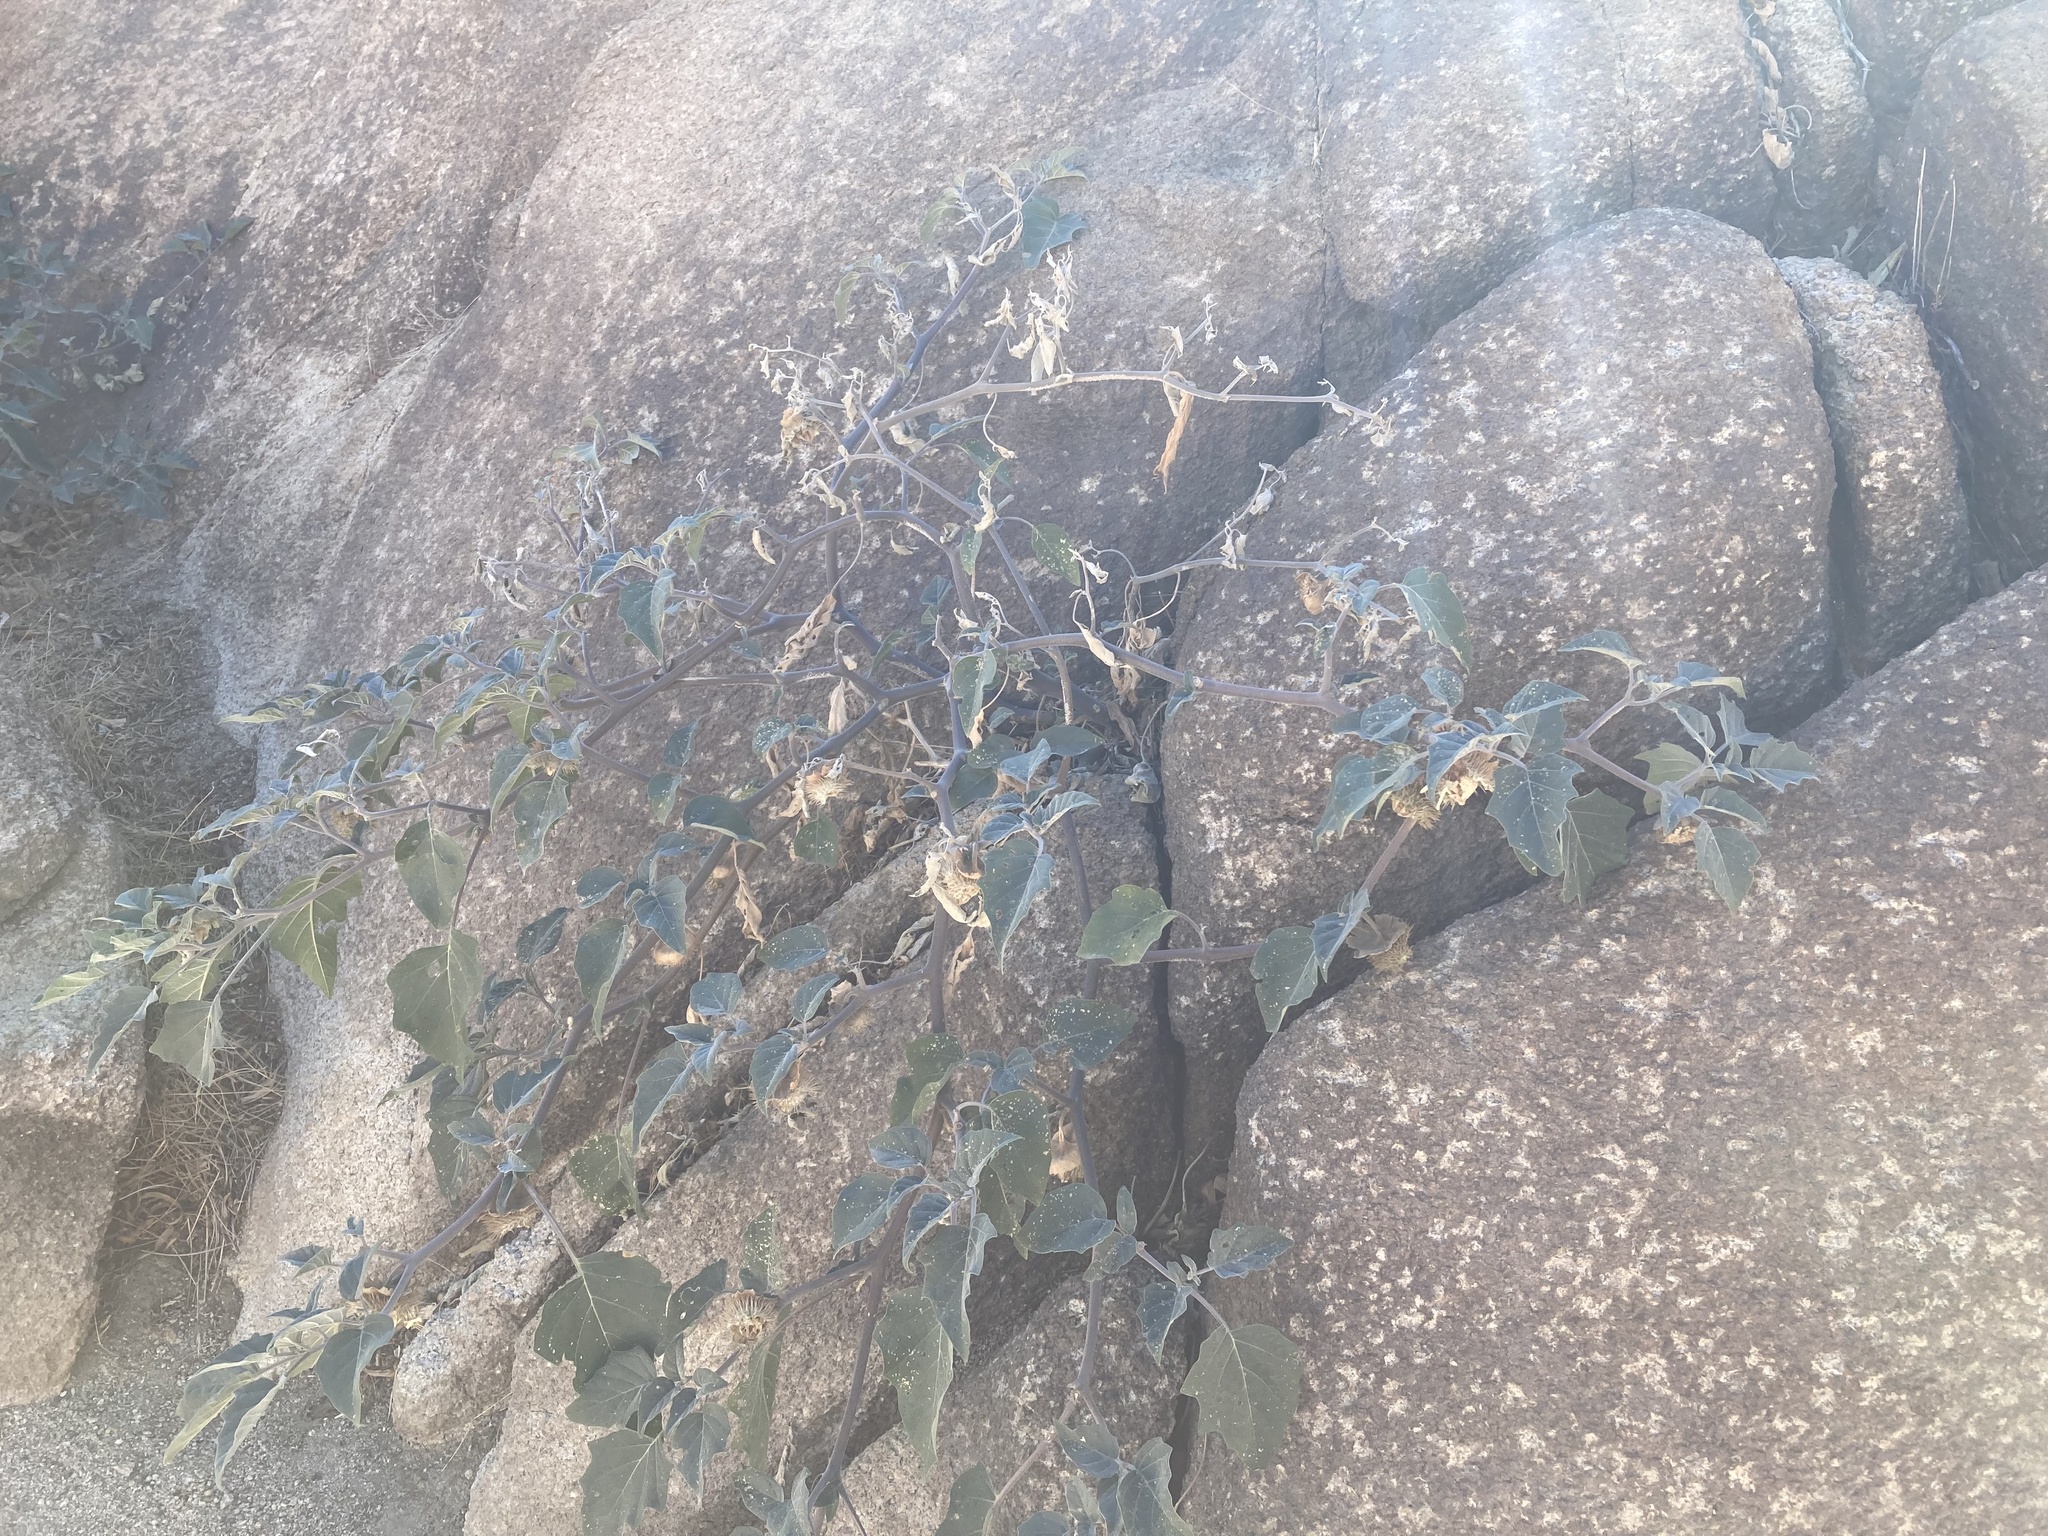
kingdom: Plantae
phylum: Tracheophyta
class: Magnoliopsida
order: Solanales
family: Solanaceae
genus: Datura
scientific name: Datura wrightii
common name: Sacred thorn-apple
